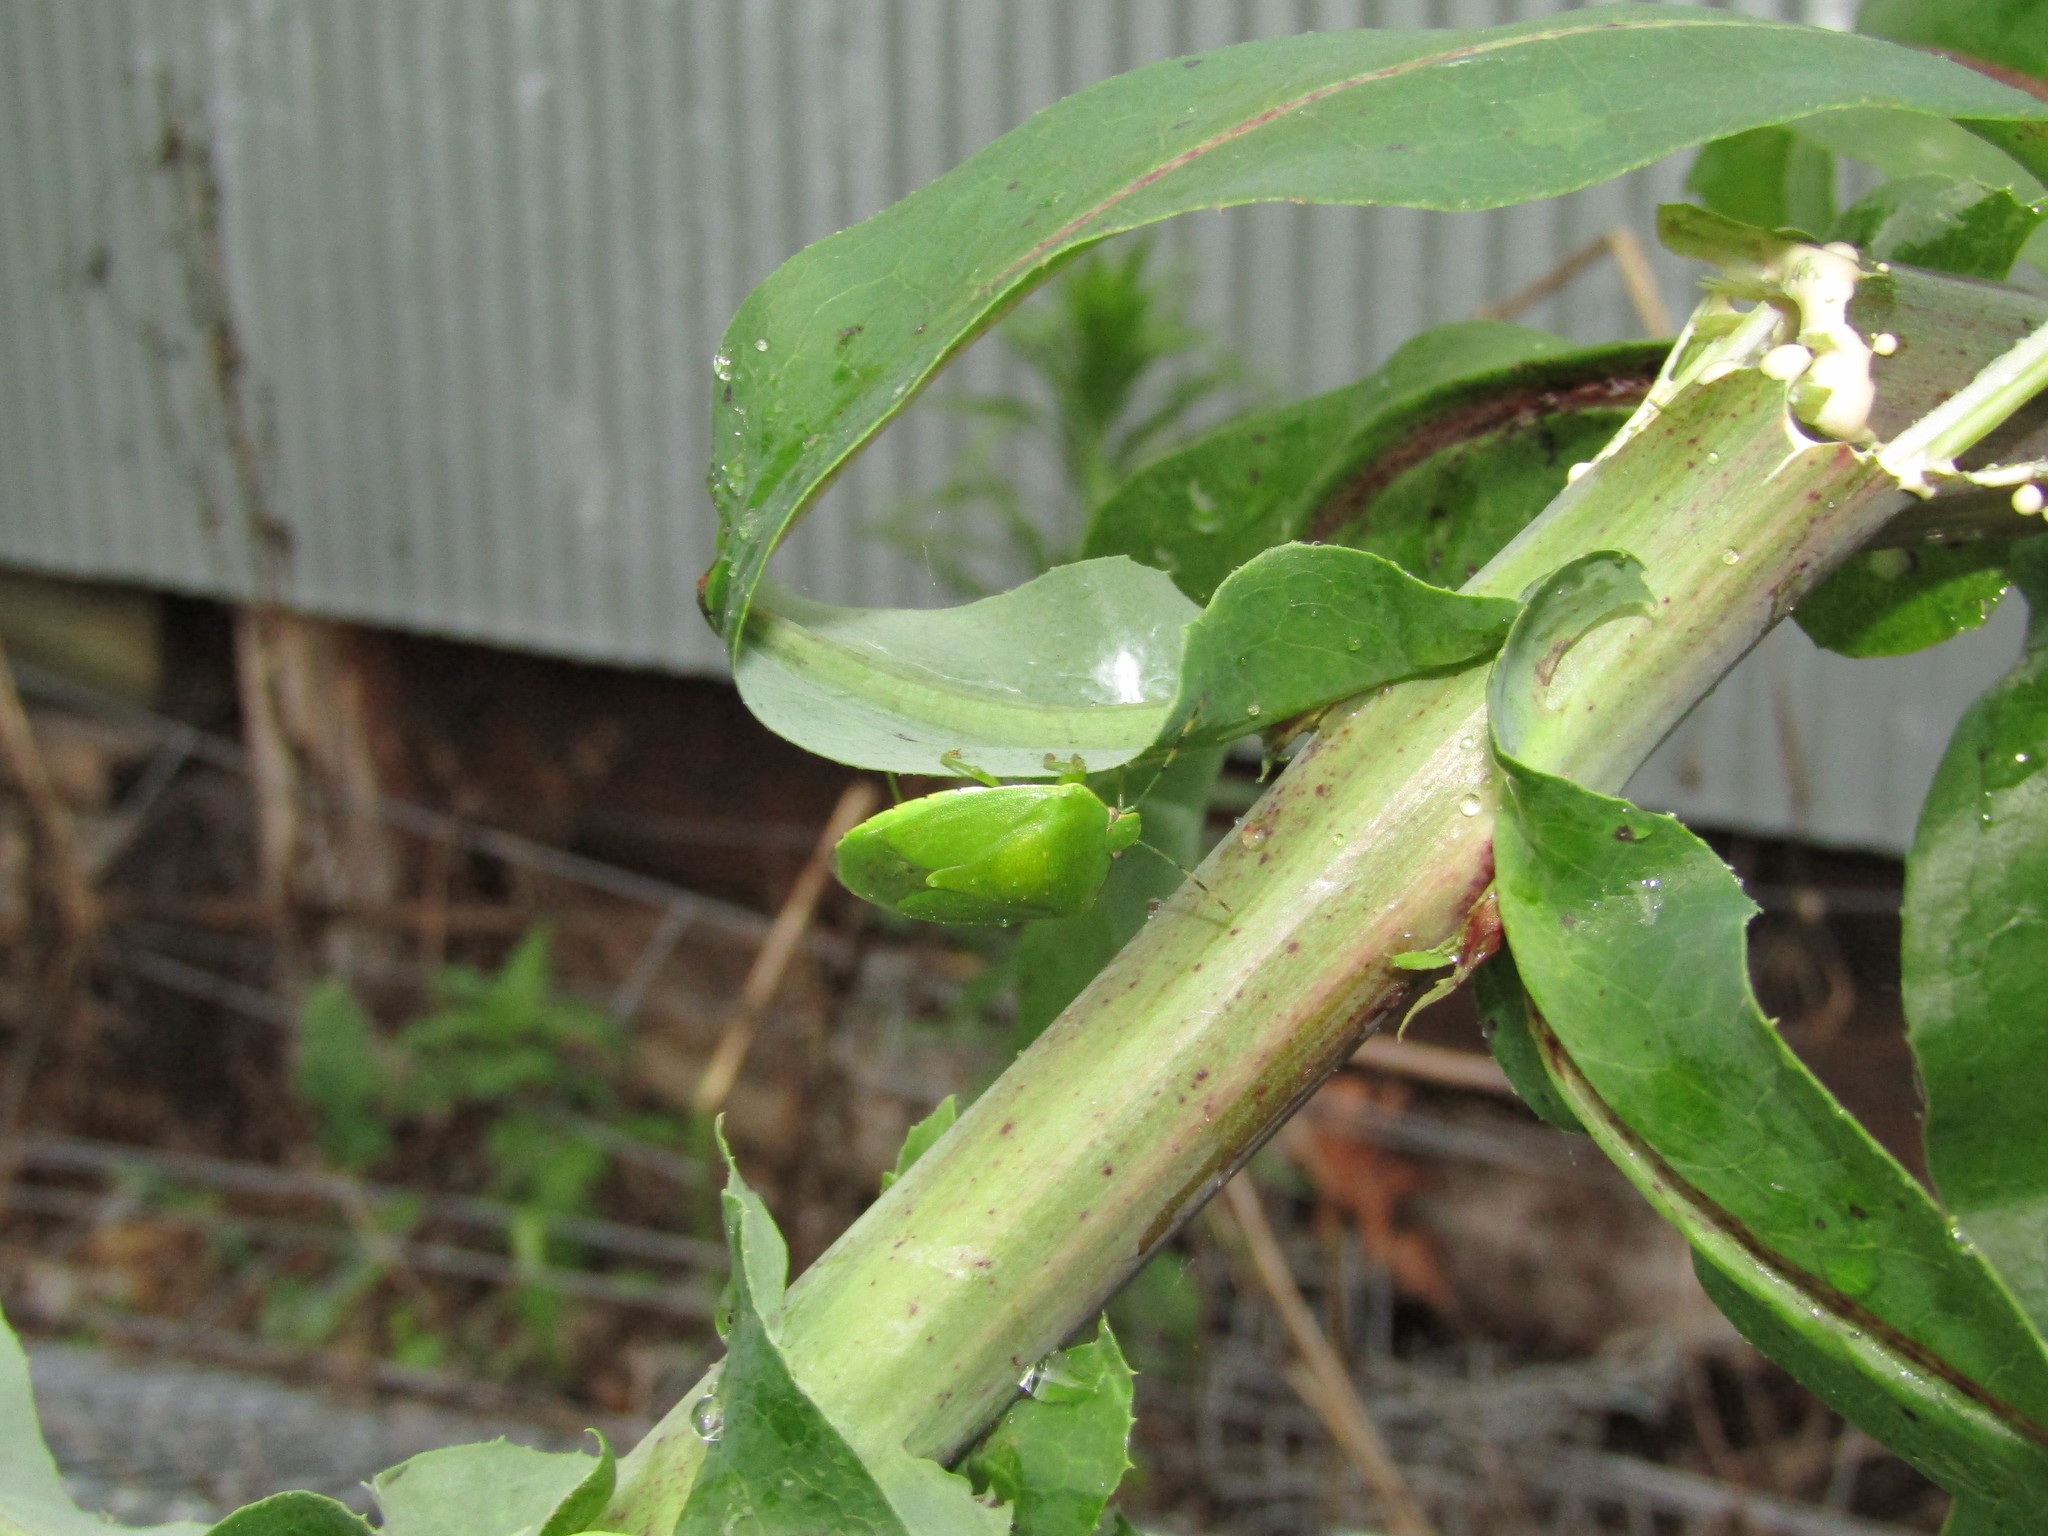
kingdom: Animalia
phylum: Arthropoda
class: Insecta
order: Hemiptera
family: Pentatomidae
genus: Chinavia
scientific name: Chinavia hilaris
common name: Green stink bug
